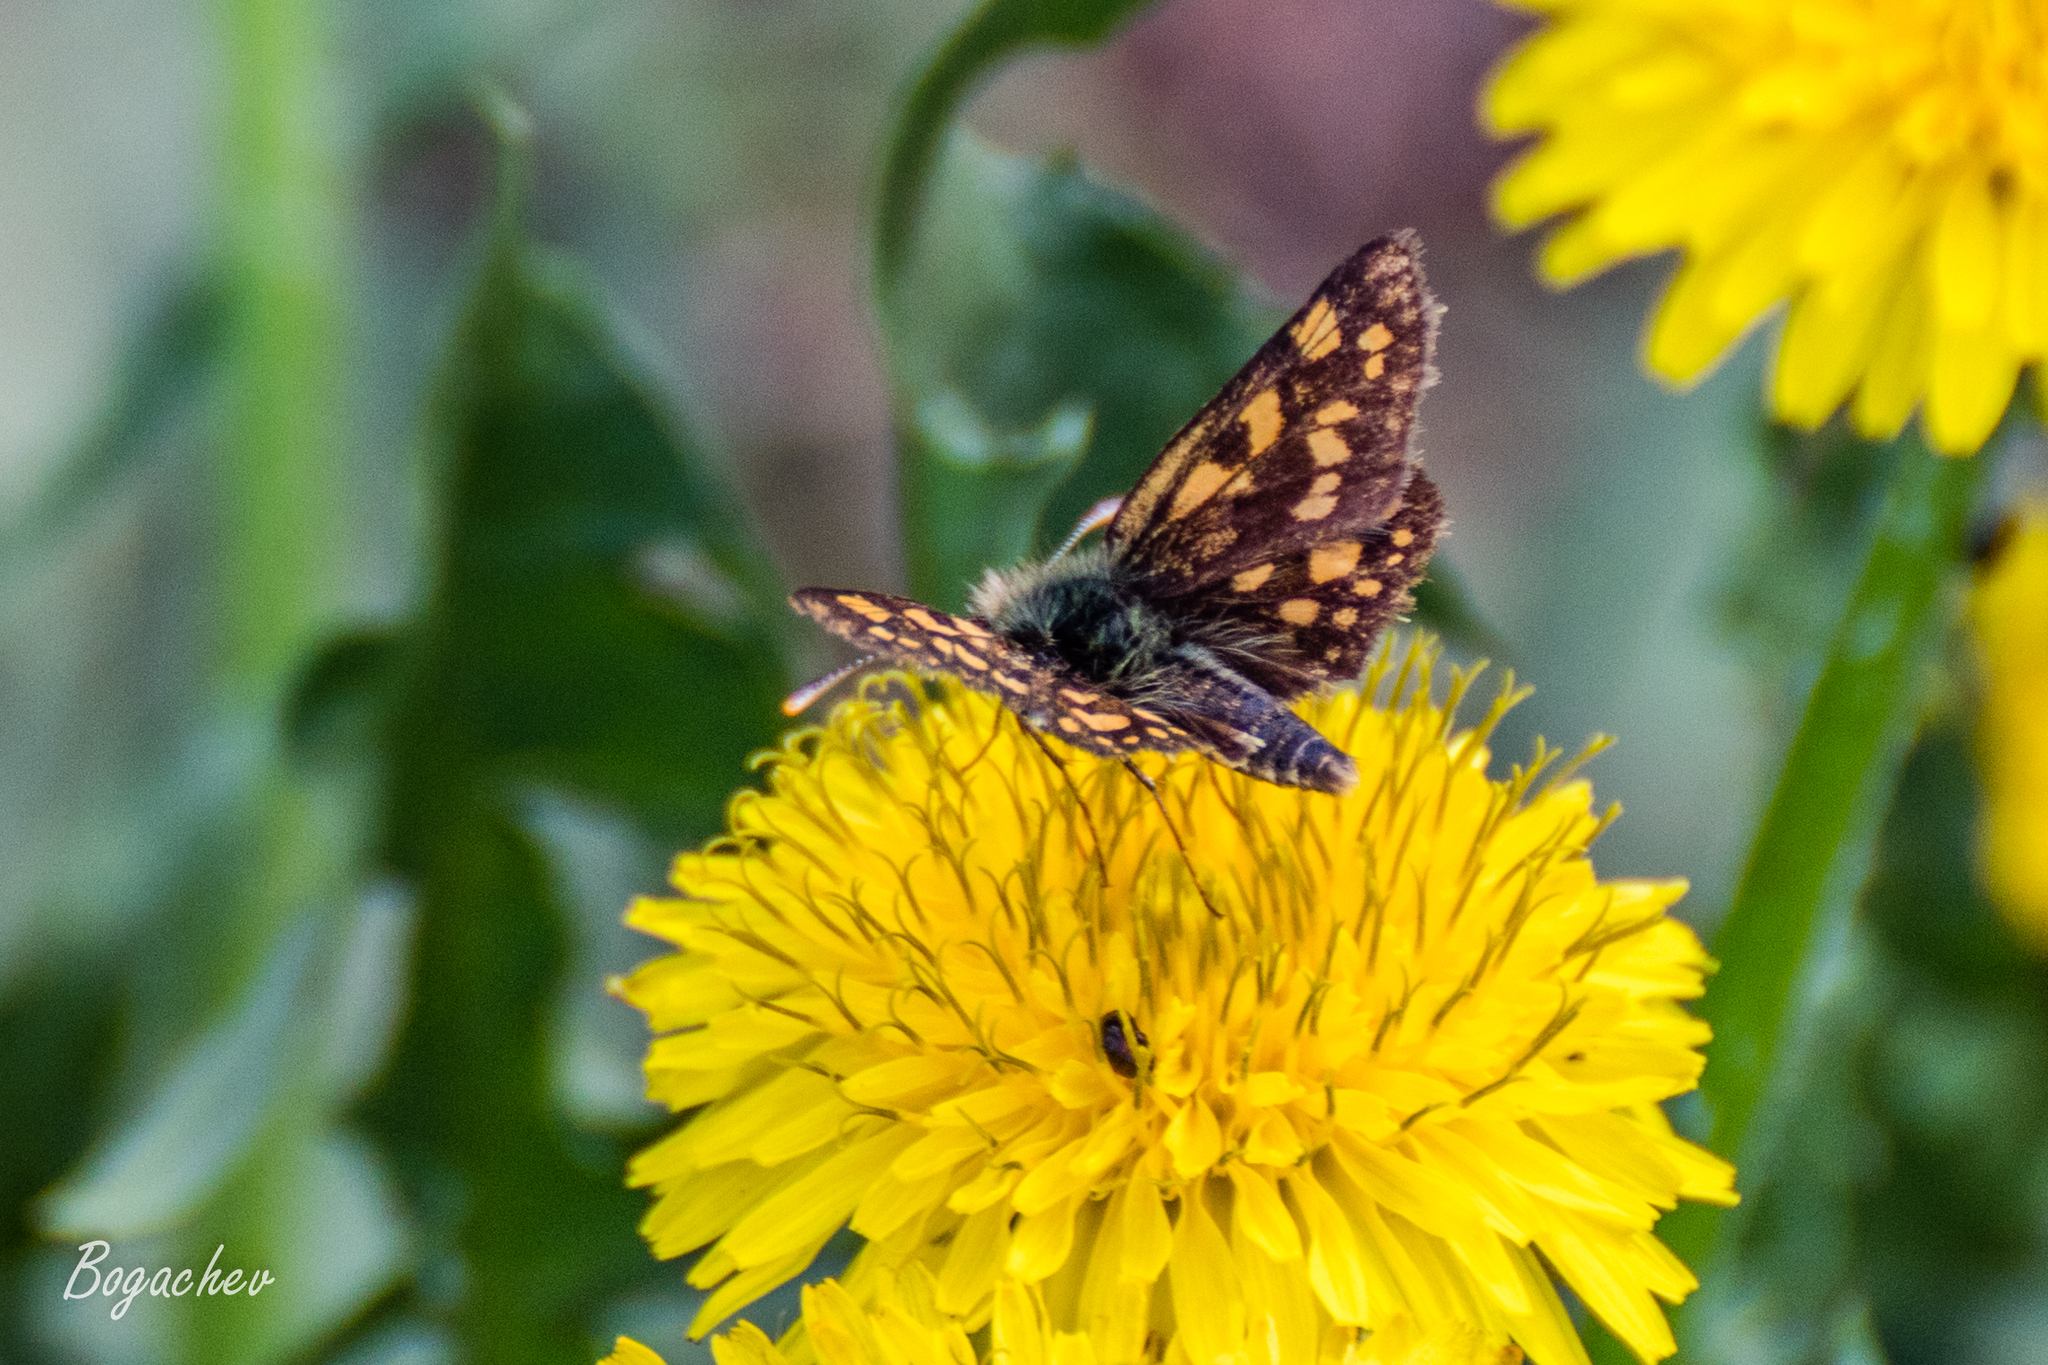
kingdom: Animalia
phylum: Arthropoda
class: Insecta
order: Lepidoptera
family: Hesperiidae
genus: Carterocephalus
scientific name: Carterocephalus palaemon
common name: Chequered skipper
